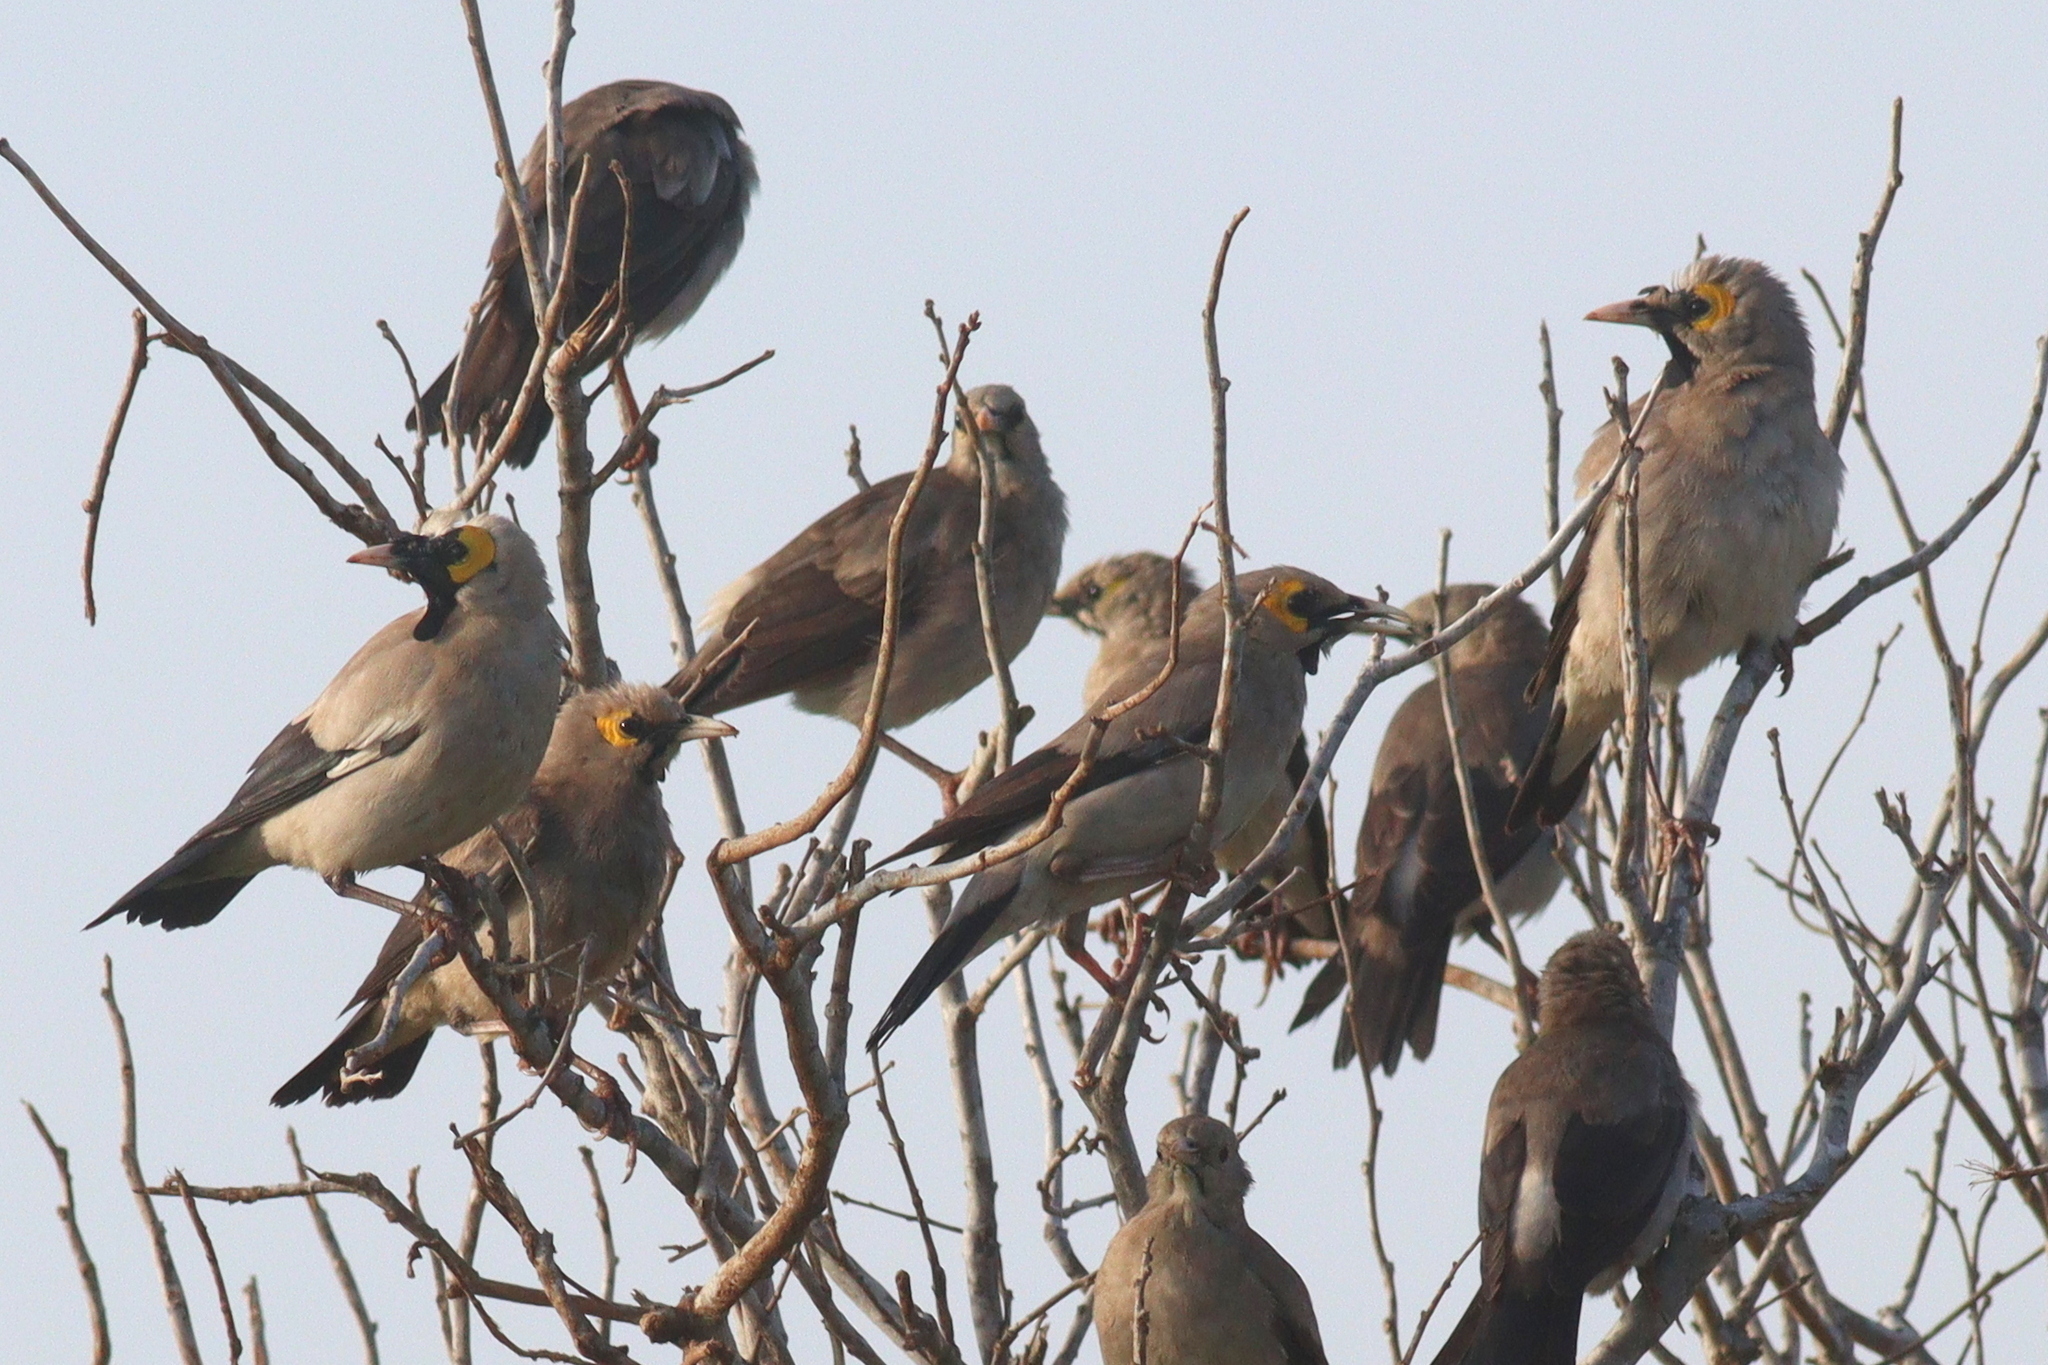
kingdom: Animalia
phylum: Chordata
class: Aves
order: Passeriformes
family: Sturnidae
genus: Creatophora
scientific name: Creatophora cinerea
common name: Wattled starling
